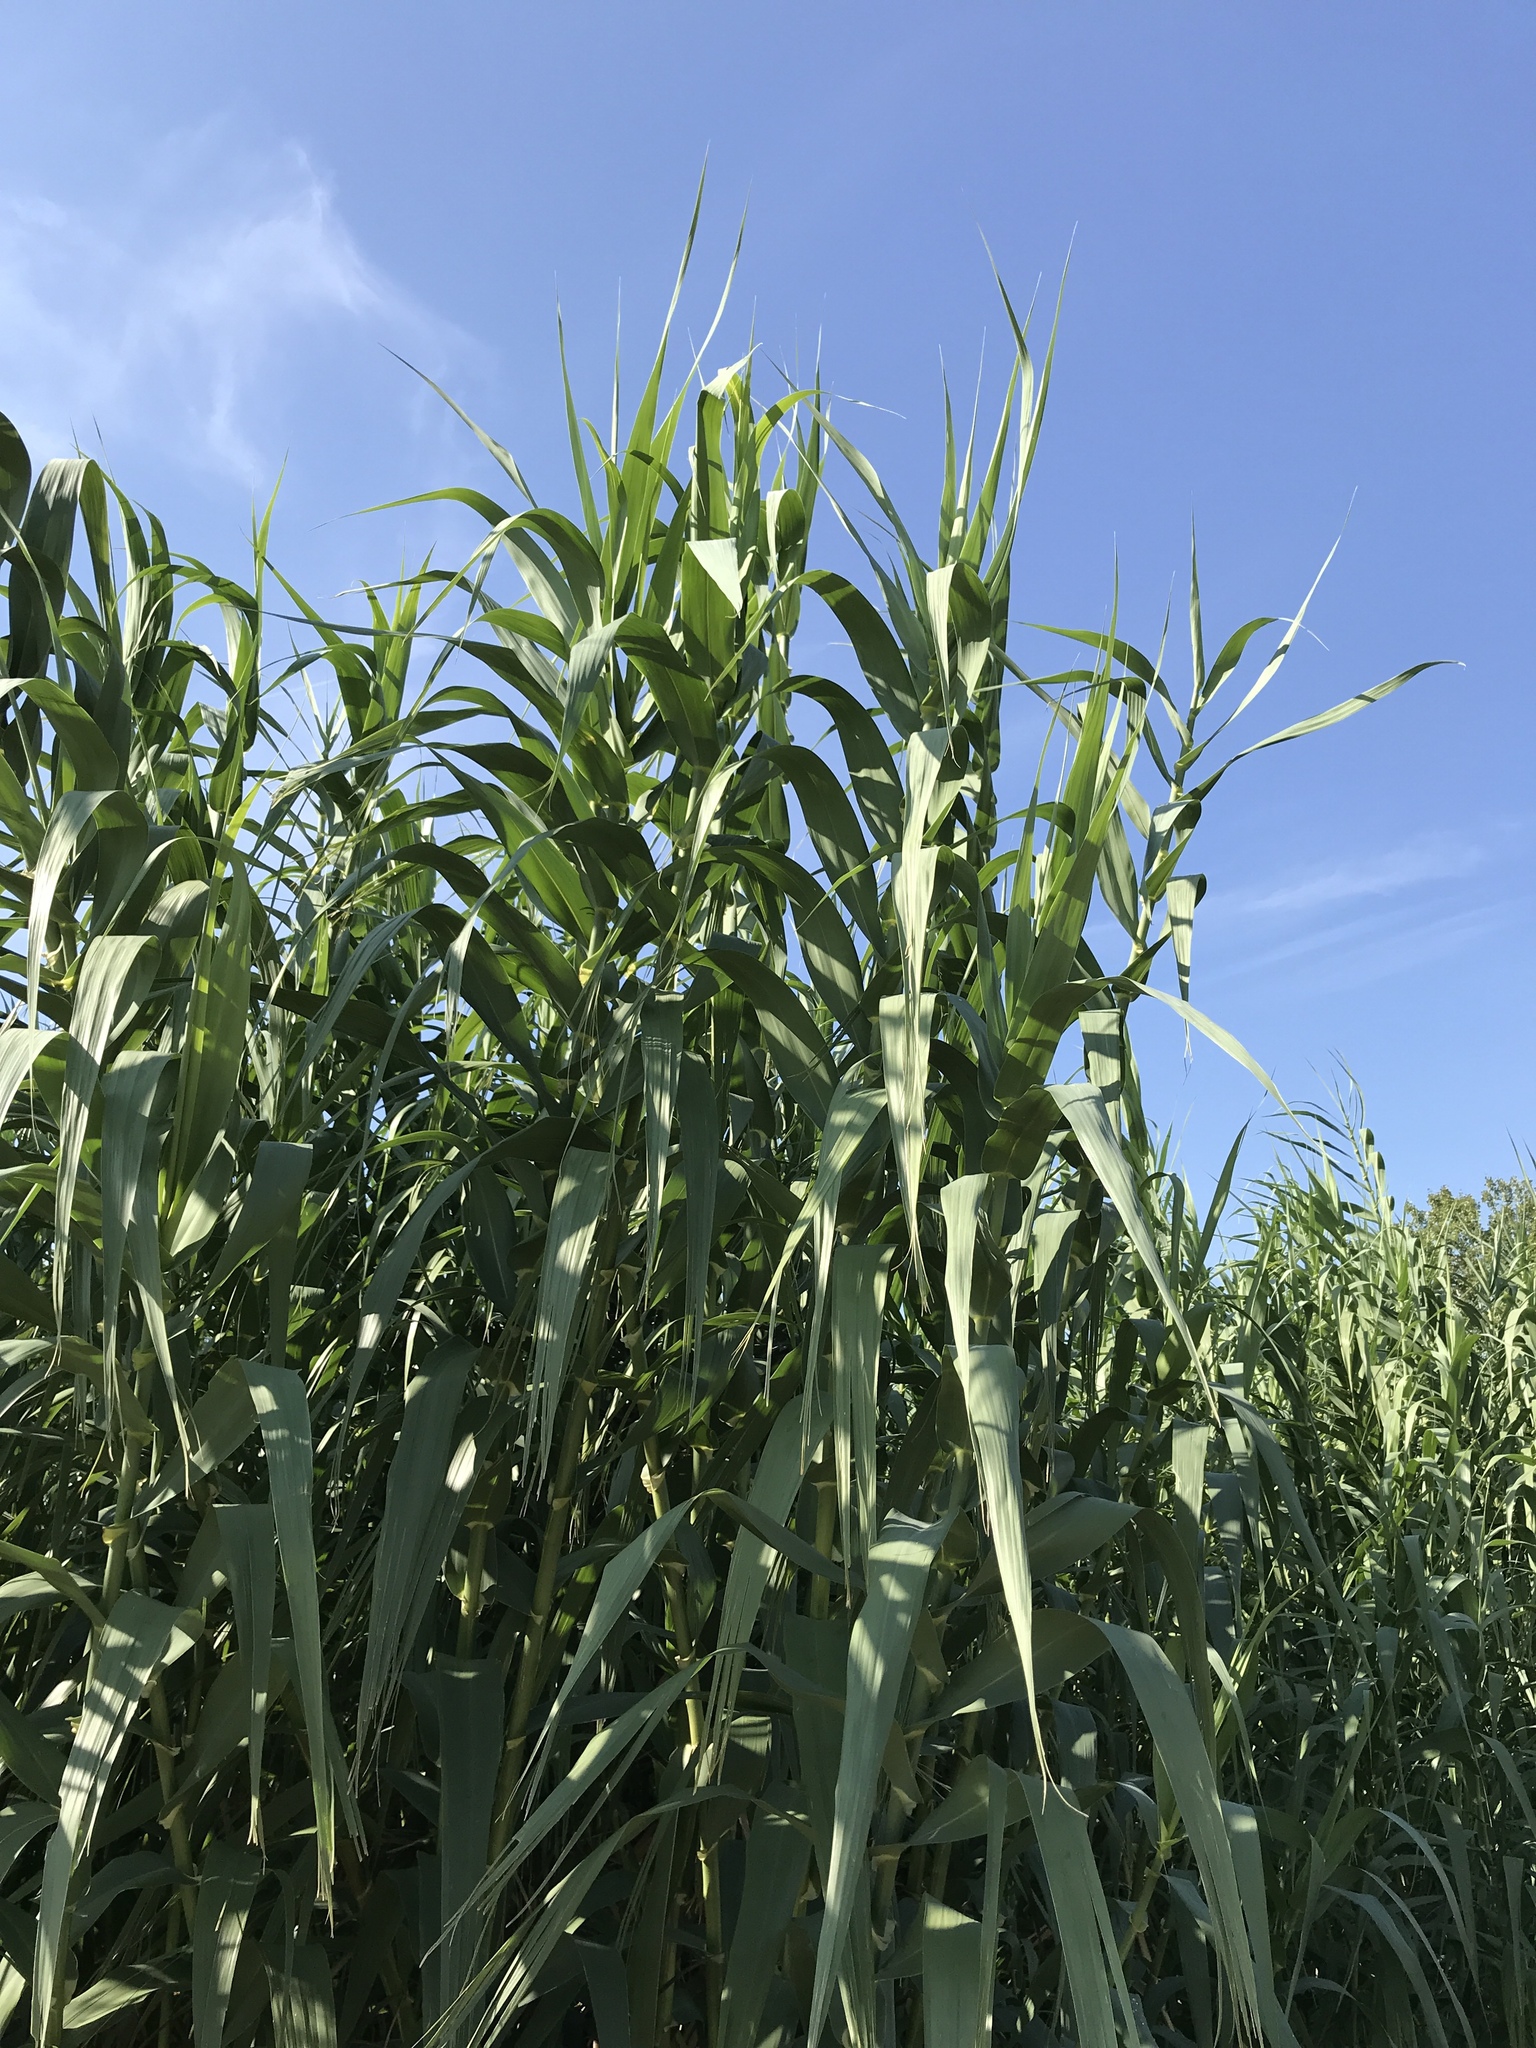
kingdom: Plantae
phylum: Tracheophyta
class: Liliopsida
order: Poales
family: Poaceae
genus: Arundo
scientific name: Arundo donax
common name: Giant reed
